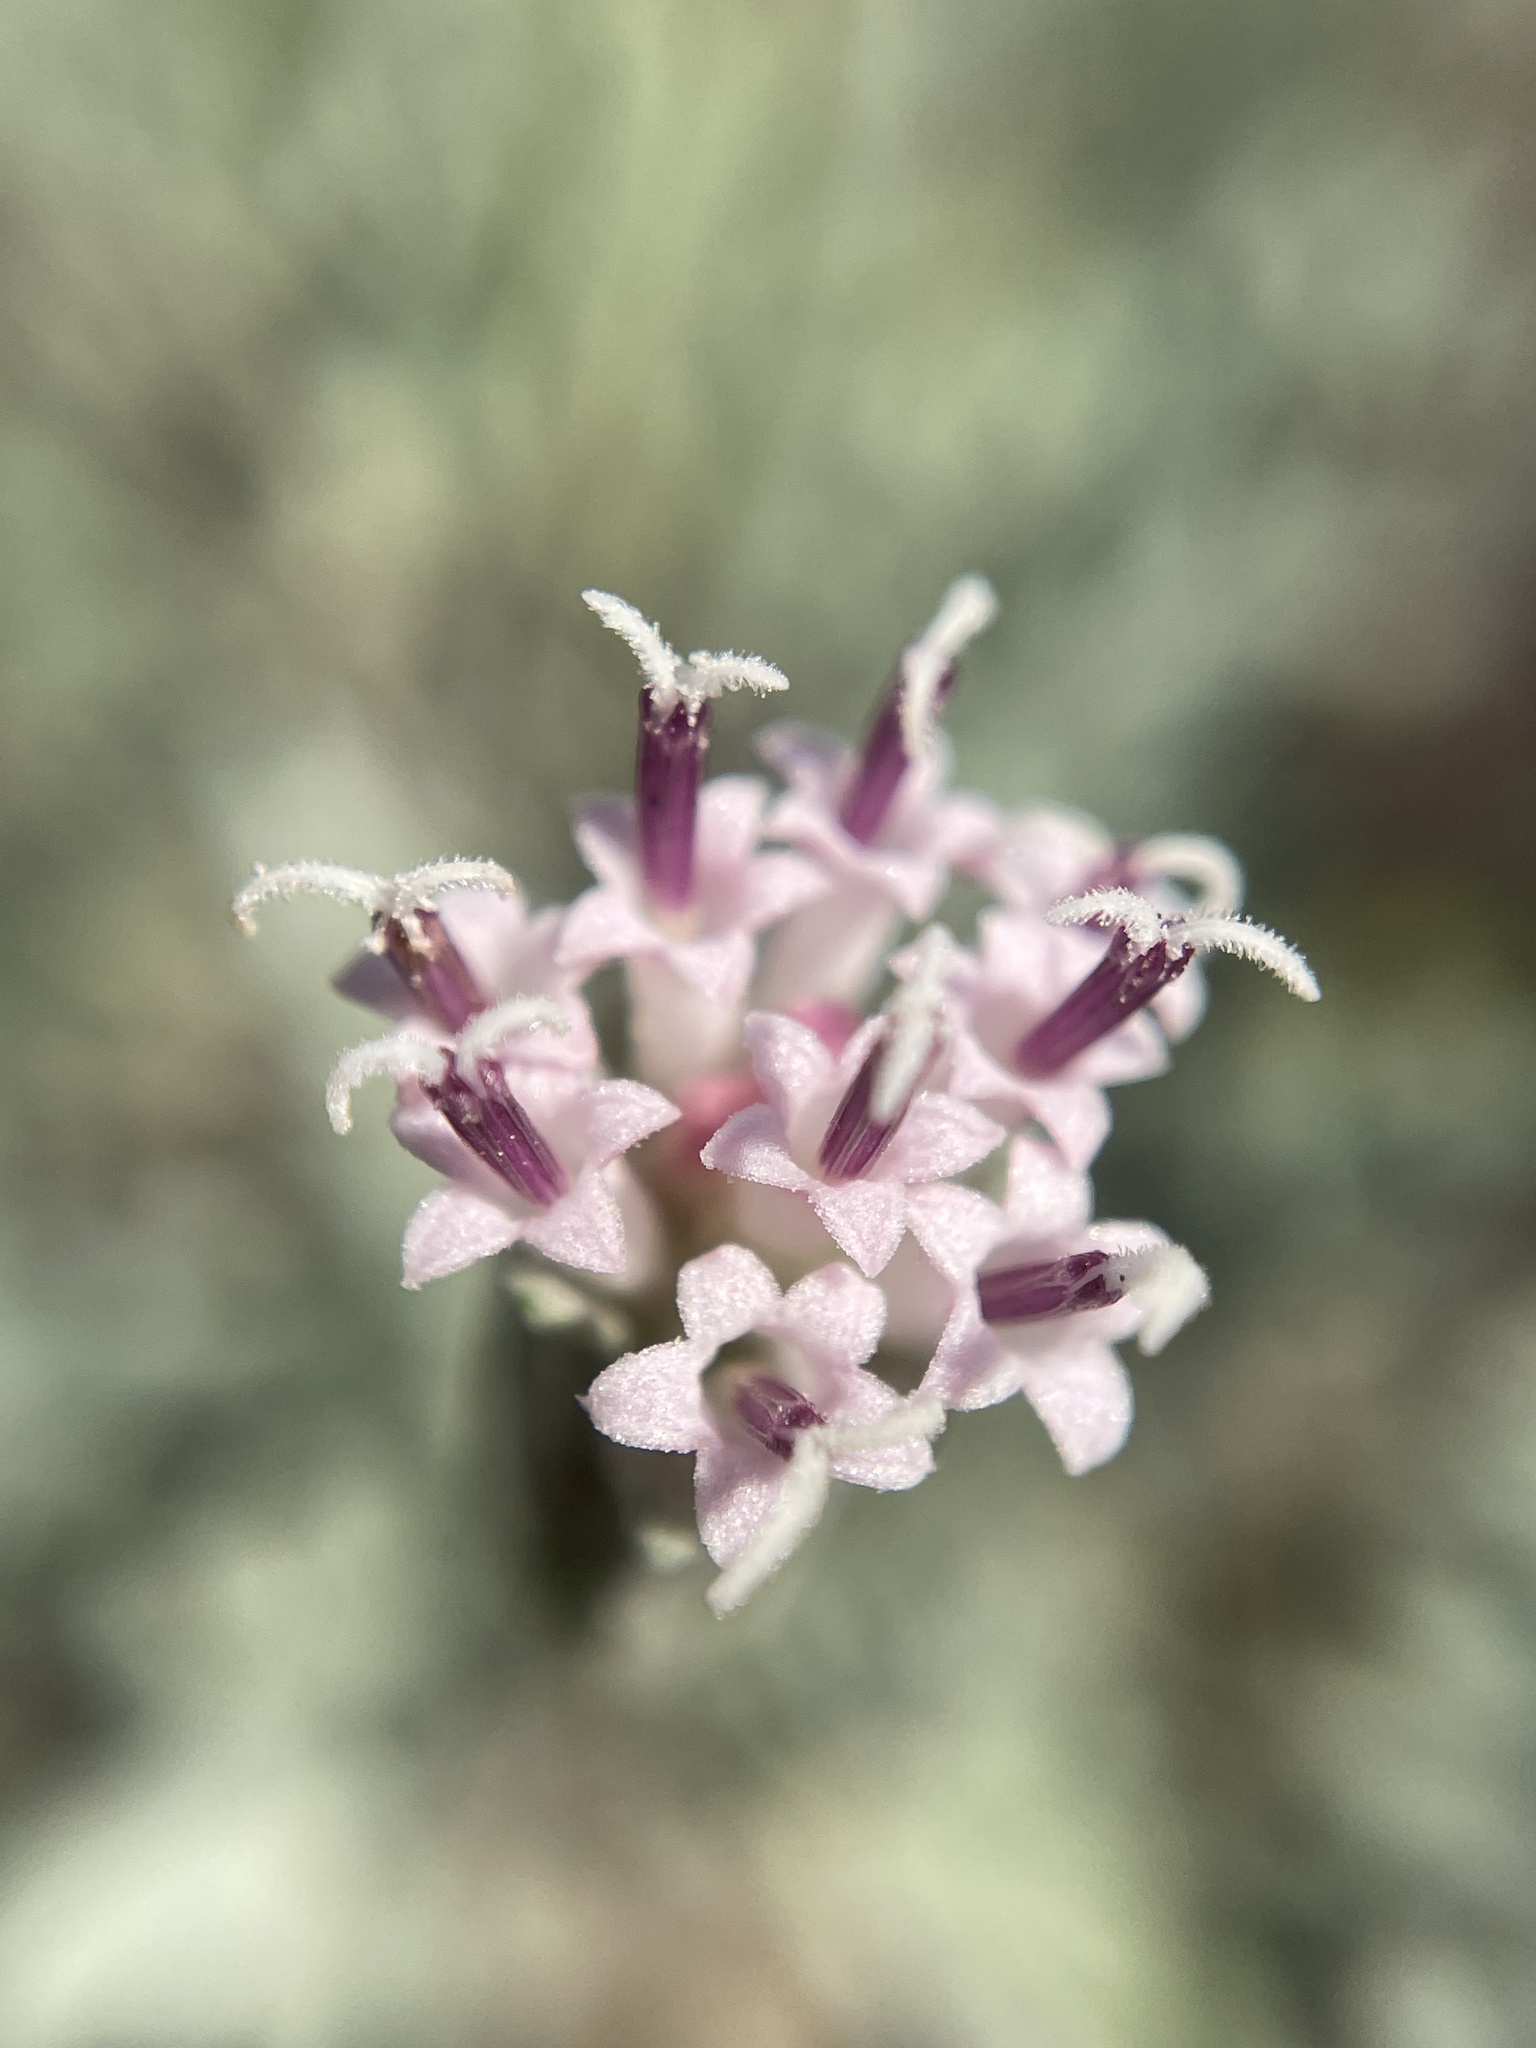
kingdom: Plantae
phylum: Tracheophyta
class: Magnoliopsida
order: Asterales
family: Asteraceae
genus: Chaenactis
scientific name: Chaenactis thompsonii
